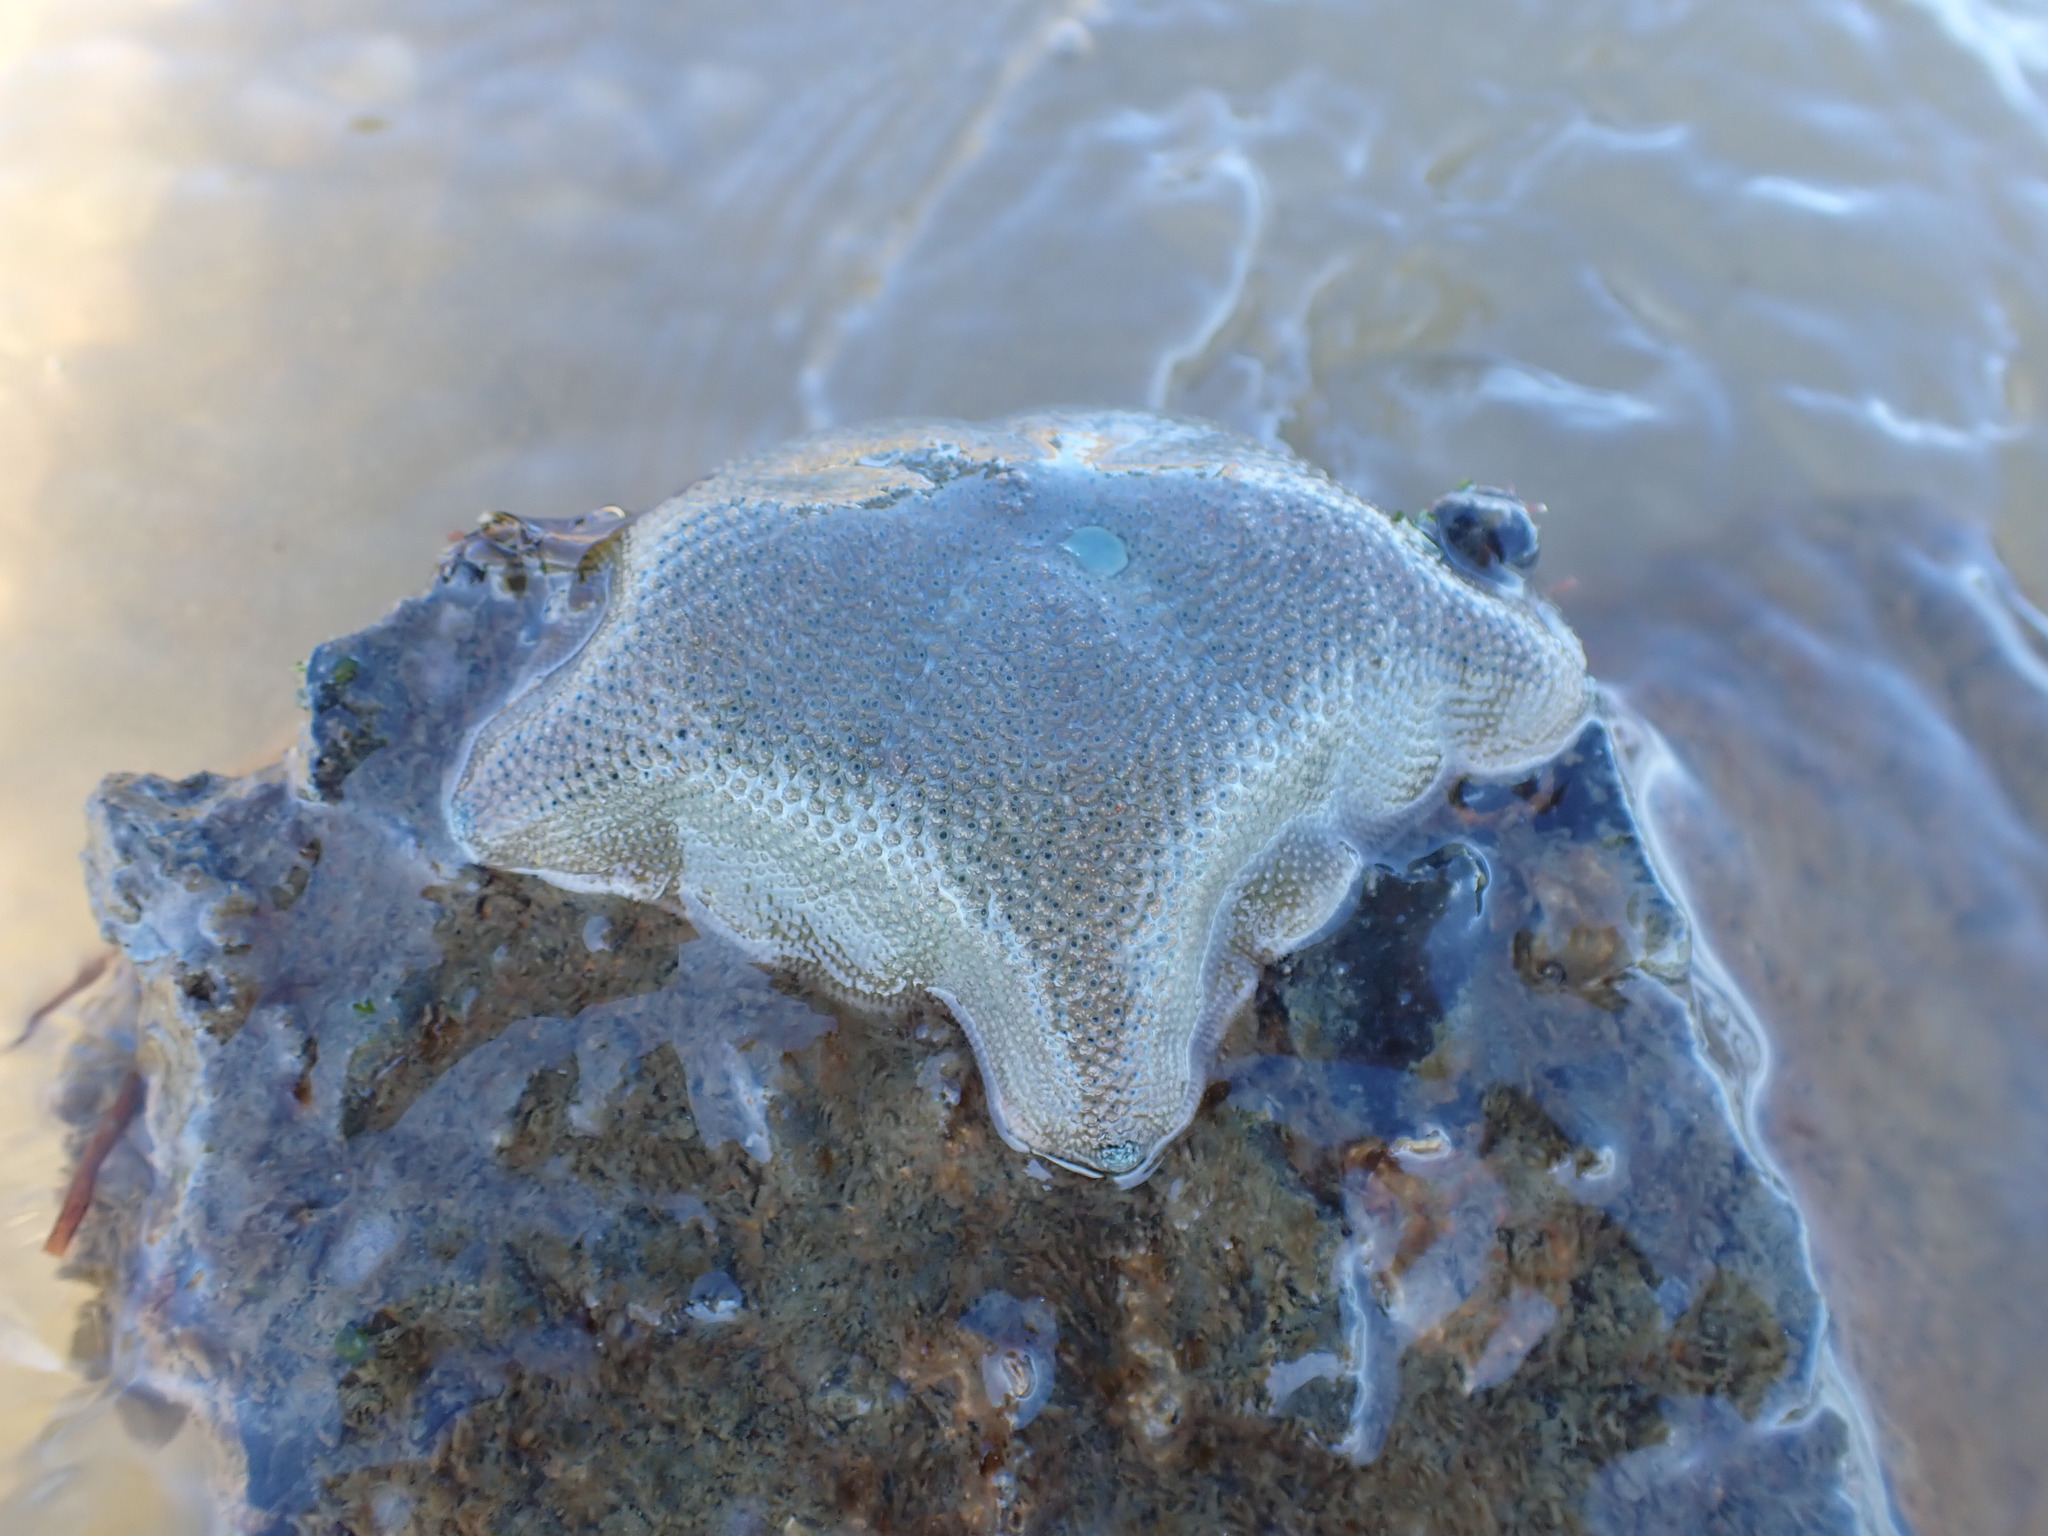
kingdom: Animalia
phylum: Echinodermata
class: Asteroidea
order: Valvatida
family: Asterinidae
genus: Patiriella
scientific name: Patiriella regularis
